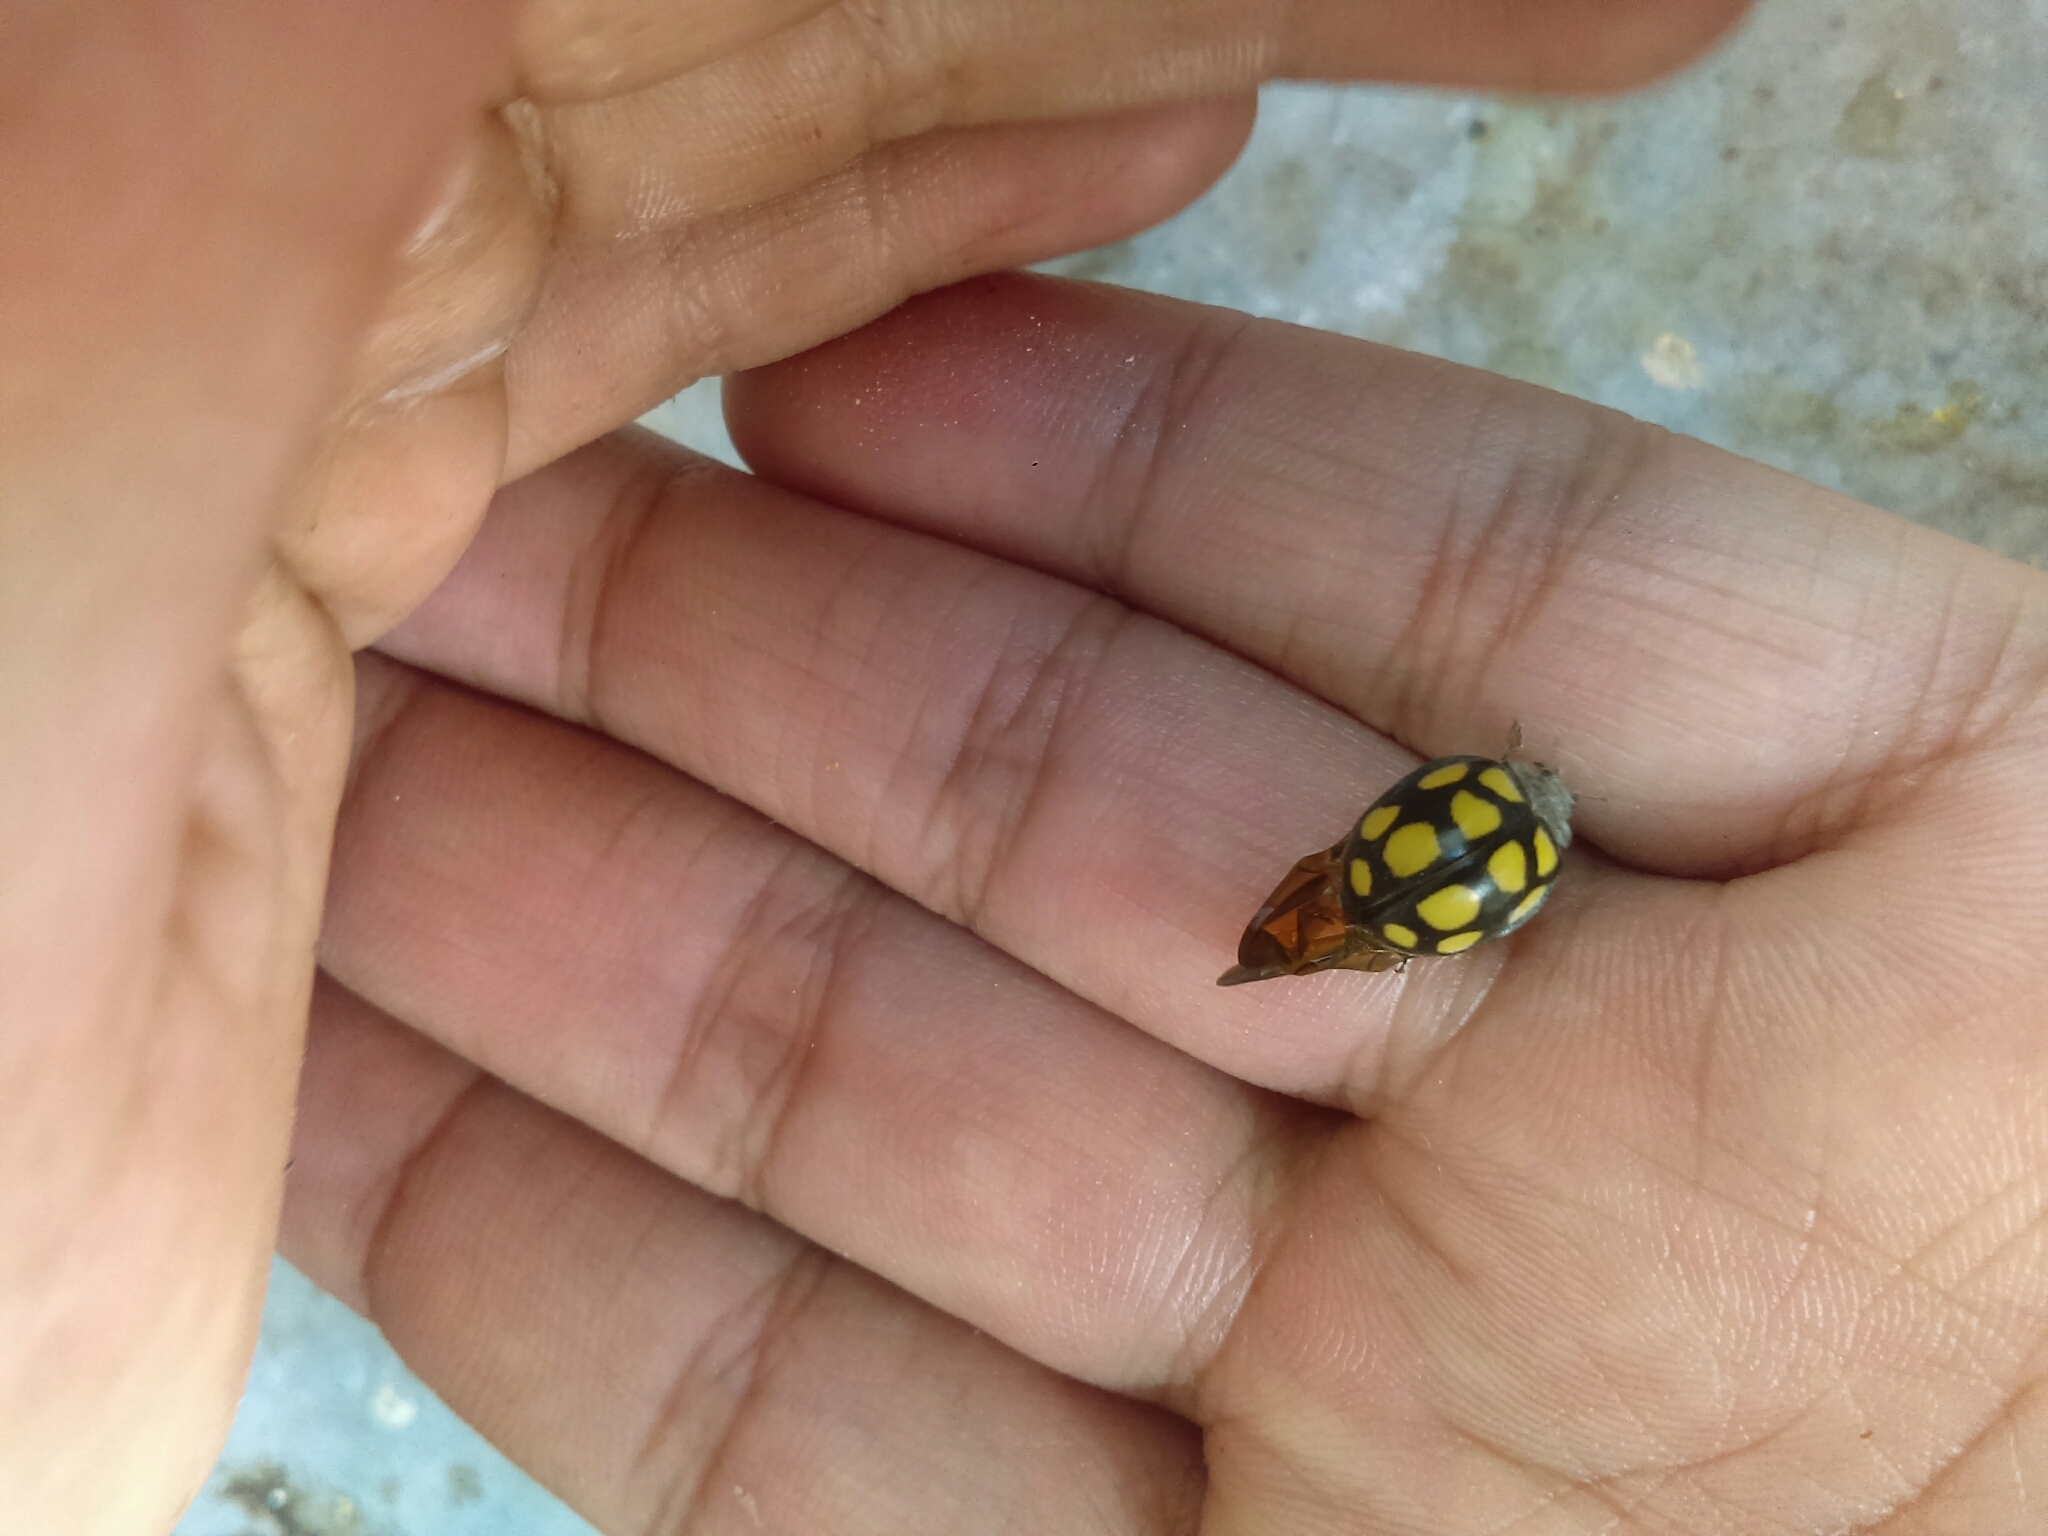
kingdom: Animalia
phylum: Arthropoda
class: Insecta
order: Coleoptera
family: Coccinellidae
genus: Epilachna
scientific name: Epilachna
